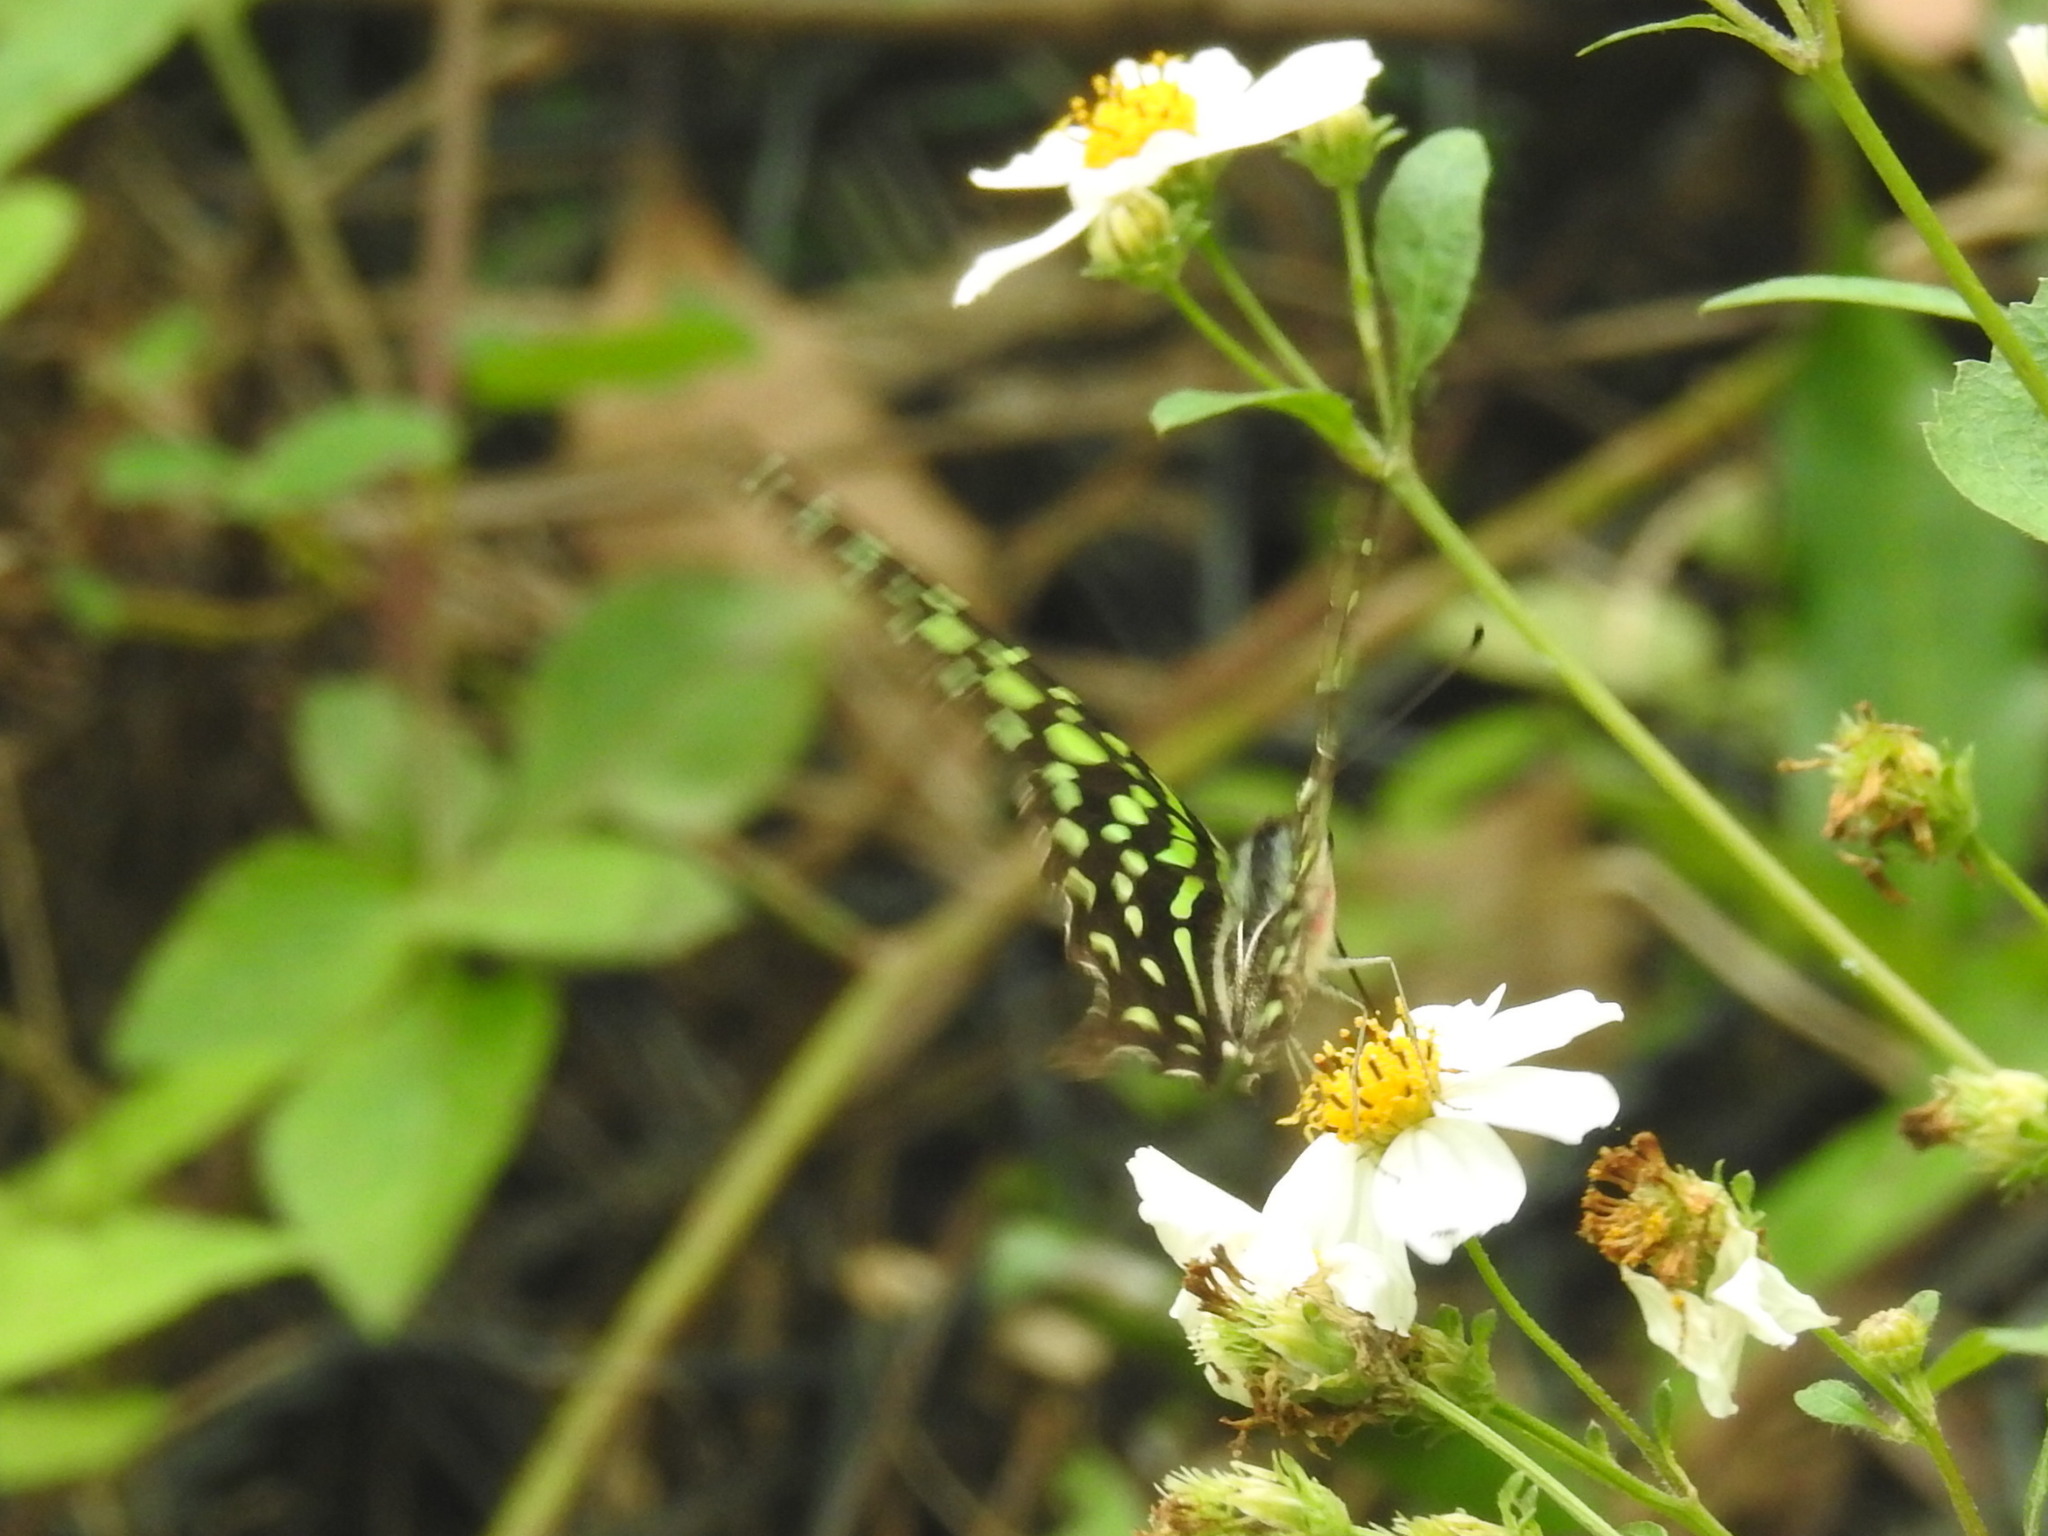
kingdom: Animalia
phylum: Arthropoda
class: Insecta
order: Lepidoptera
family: Papilionidae
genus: Graphium
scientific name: Graphium agamemnon
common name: Tailed jay
